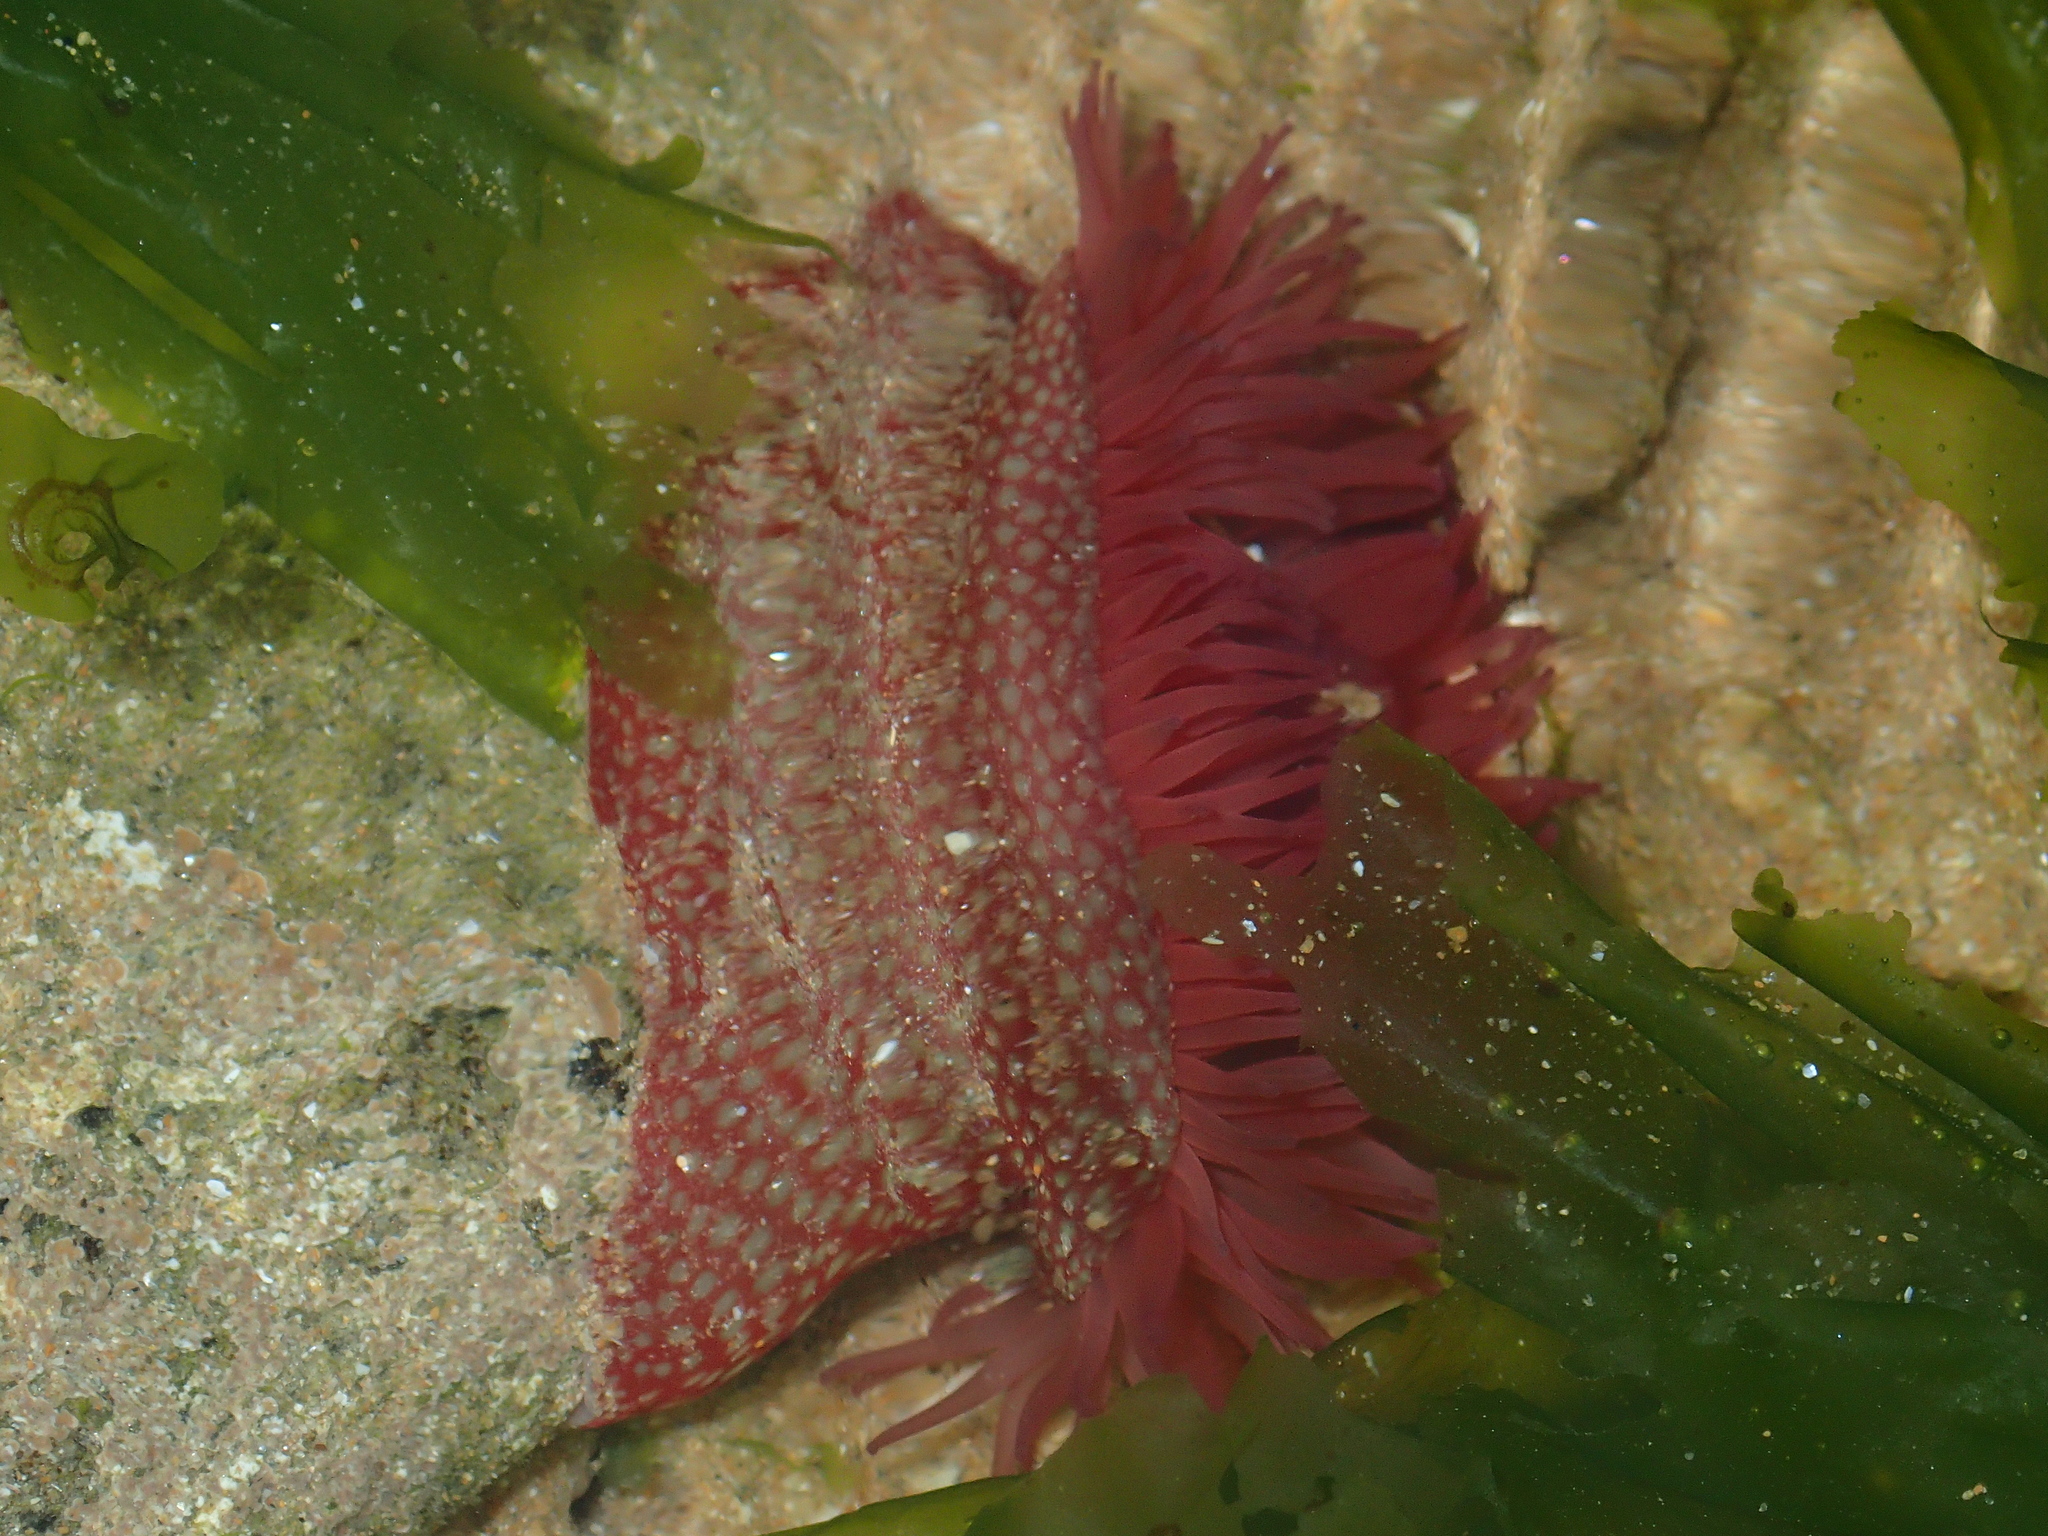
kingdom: Animalia
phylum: Cnidaria
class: Anthozoa
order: Actiniaria
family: Actiniidae
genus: Actinia
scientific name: Actinia fragacea
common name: Strawberry anemone
